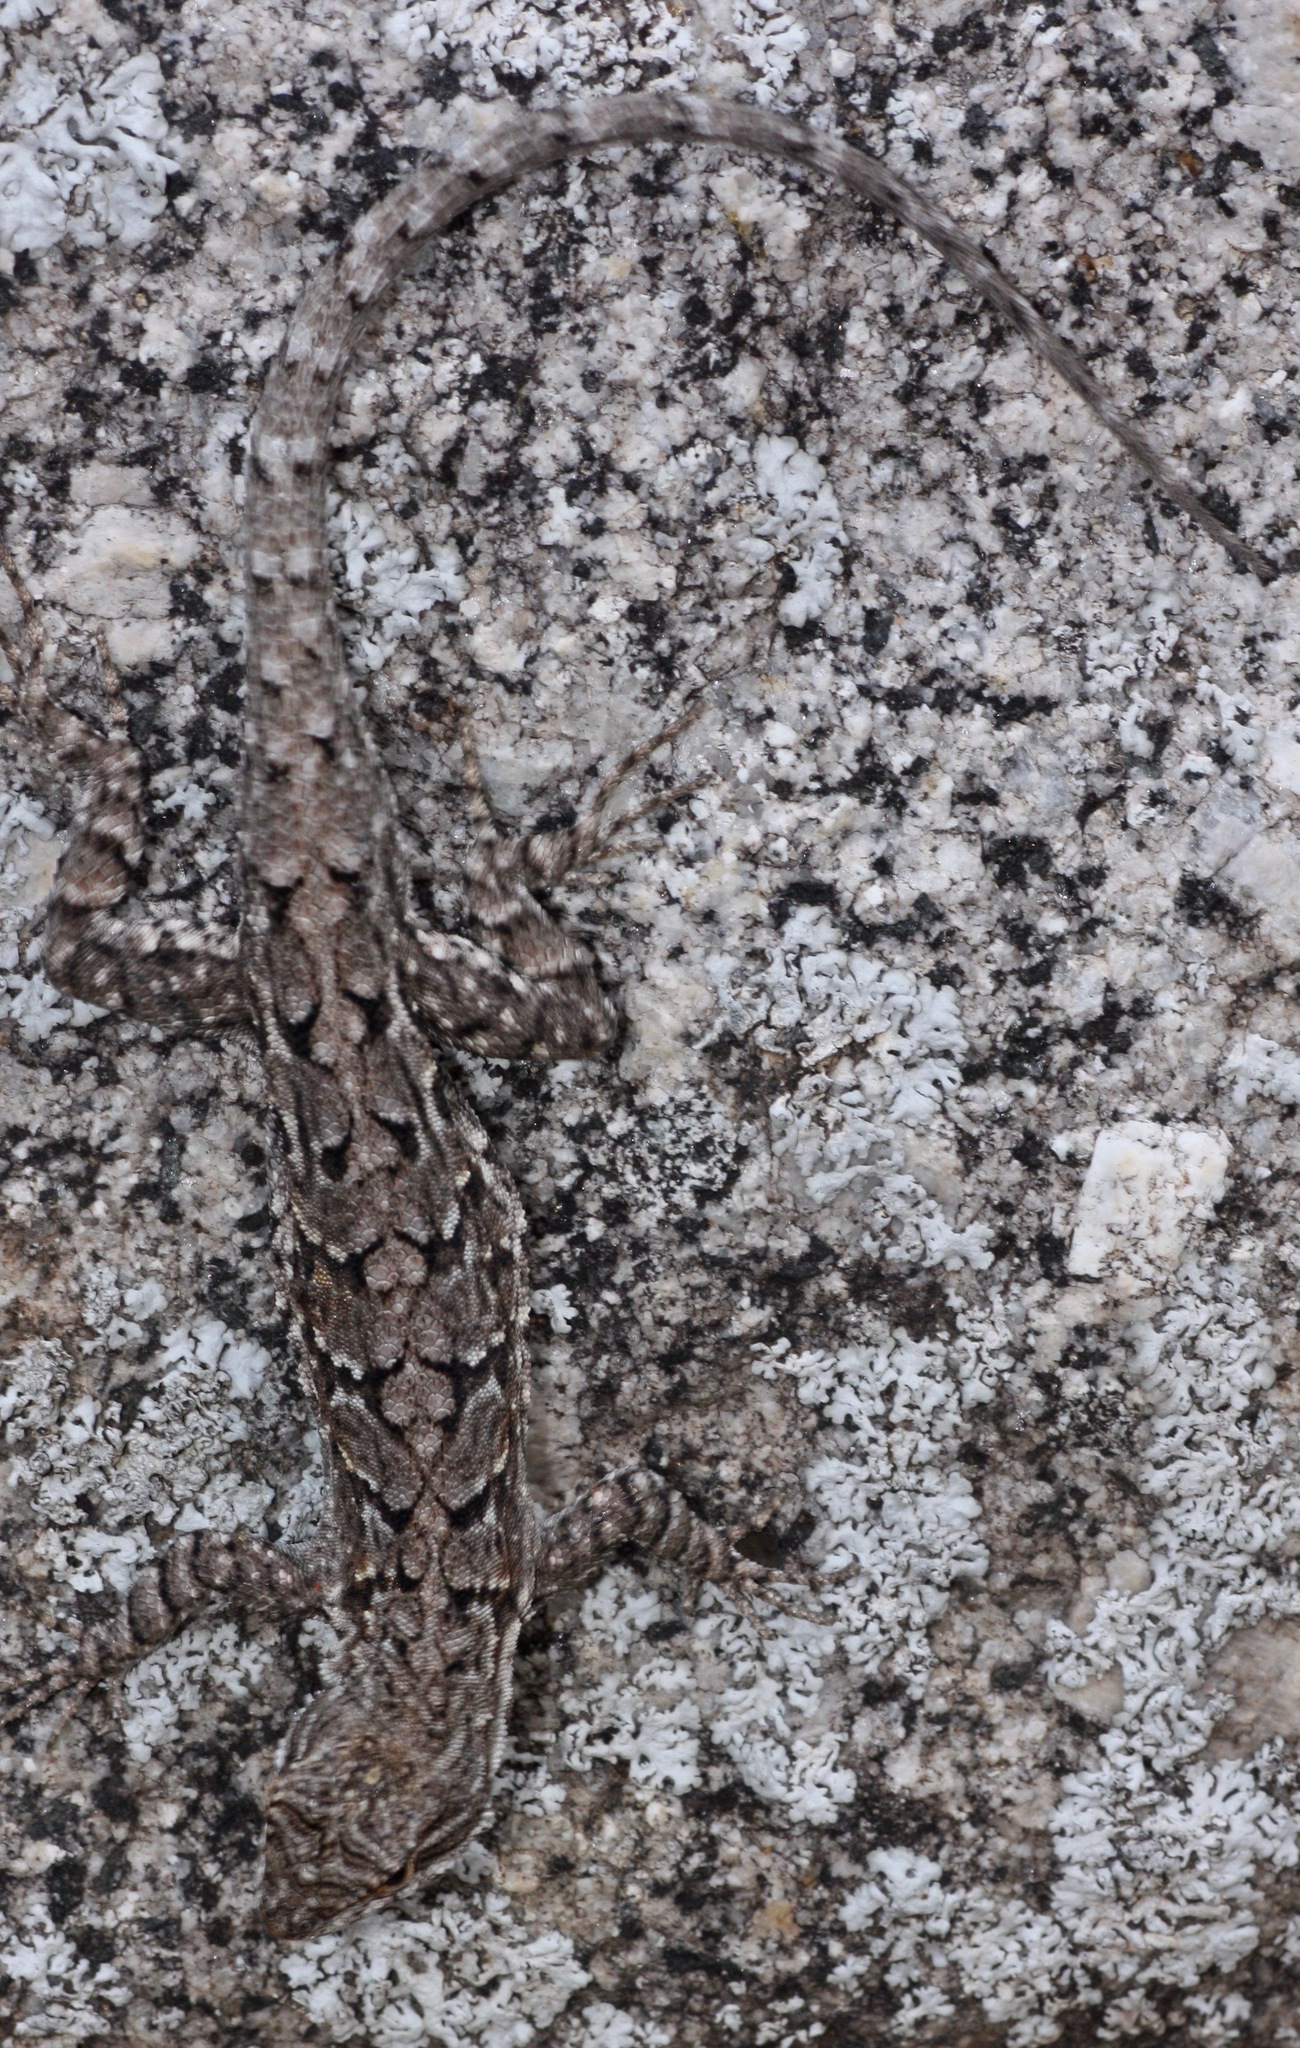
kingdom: Animalia
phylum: Chordata
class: Squamata
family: Phrynosomatidae
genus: Urosaurus
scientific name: Urosaurus ornatus
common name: Ornate tree lizard
